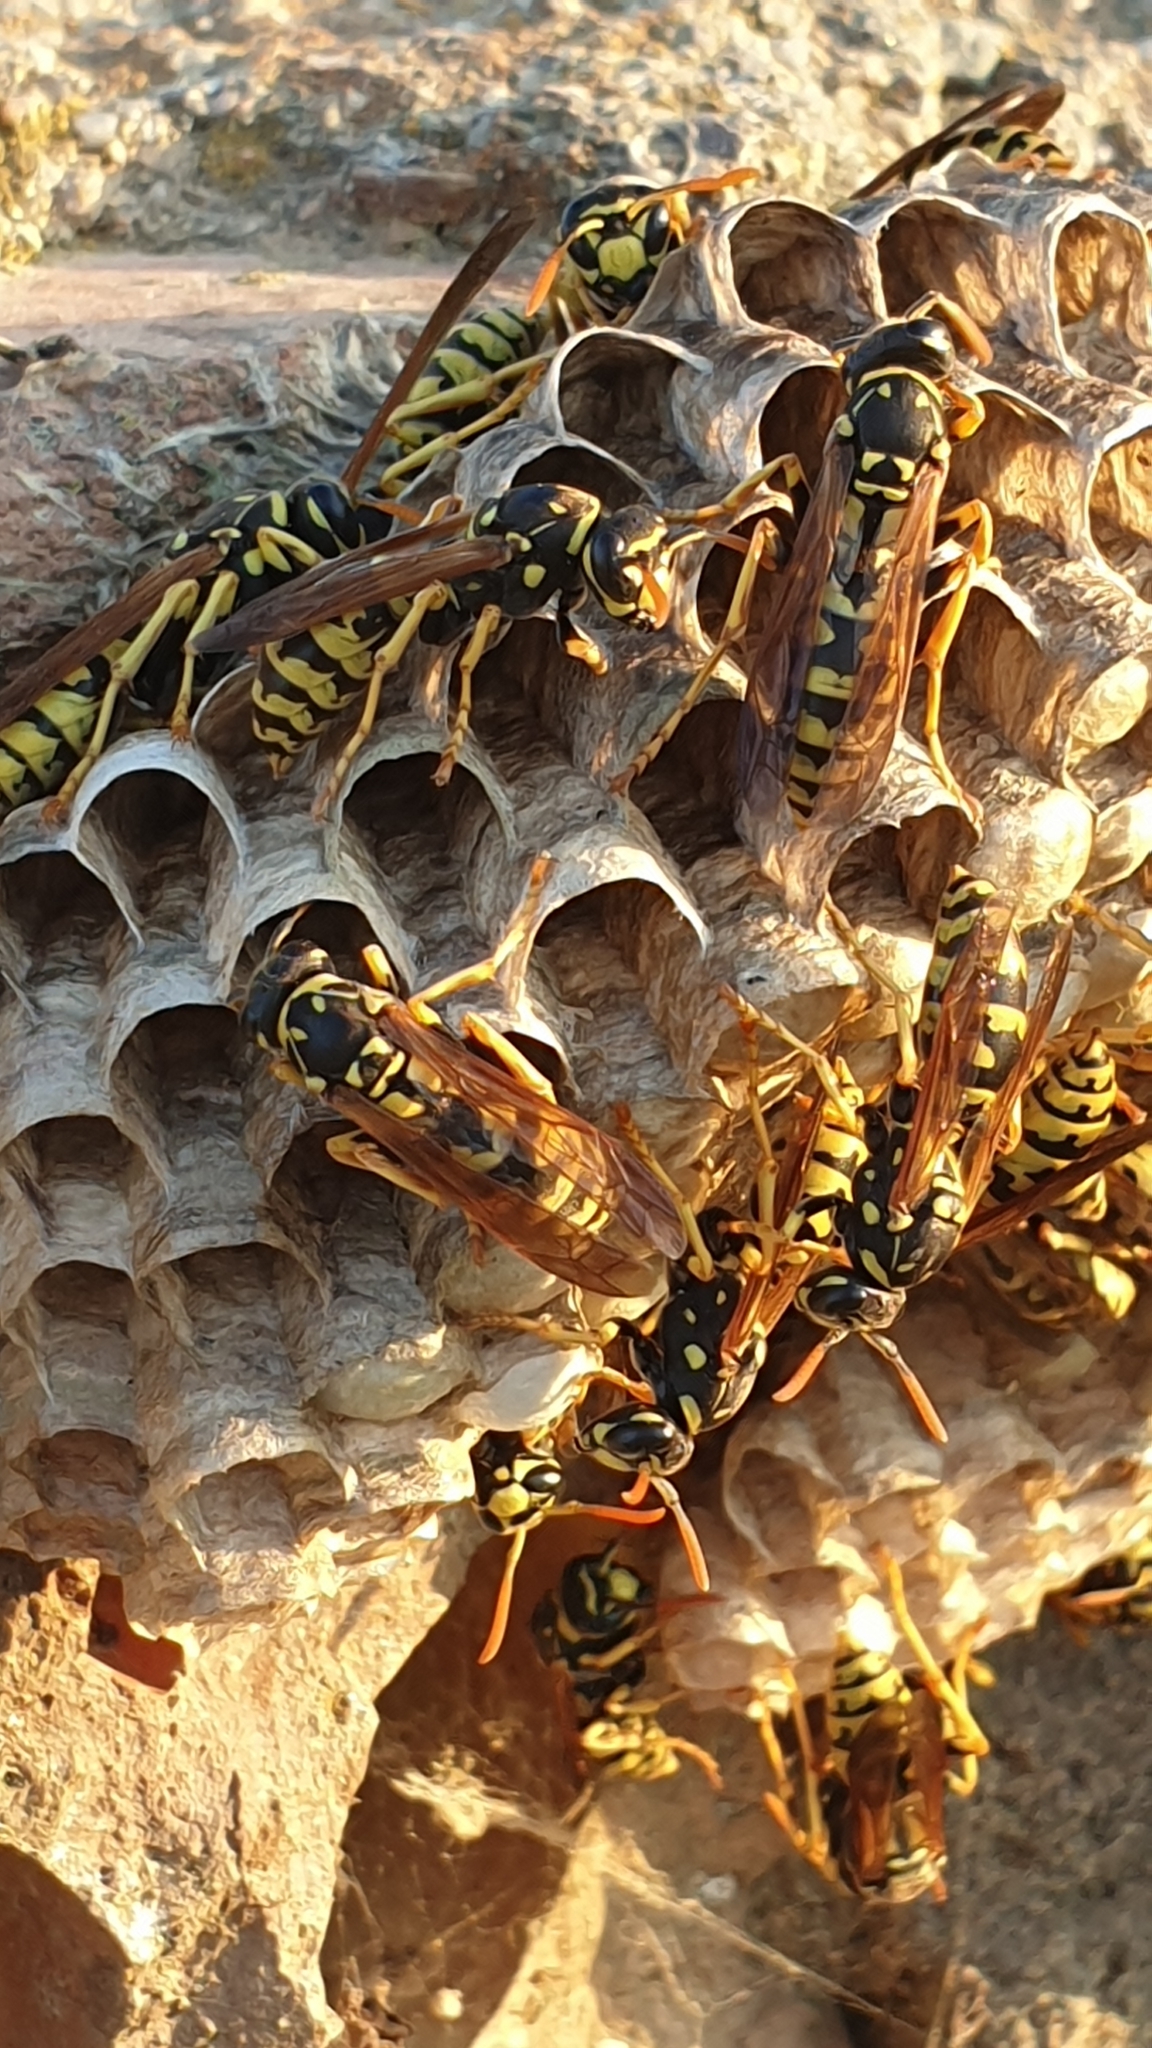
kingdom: Animalia
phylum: Arthropoda
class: Insecta
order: Hymenoptera
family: Eumenidae
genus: Polistes
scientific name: Polistes dominula
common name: Paper wasp
